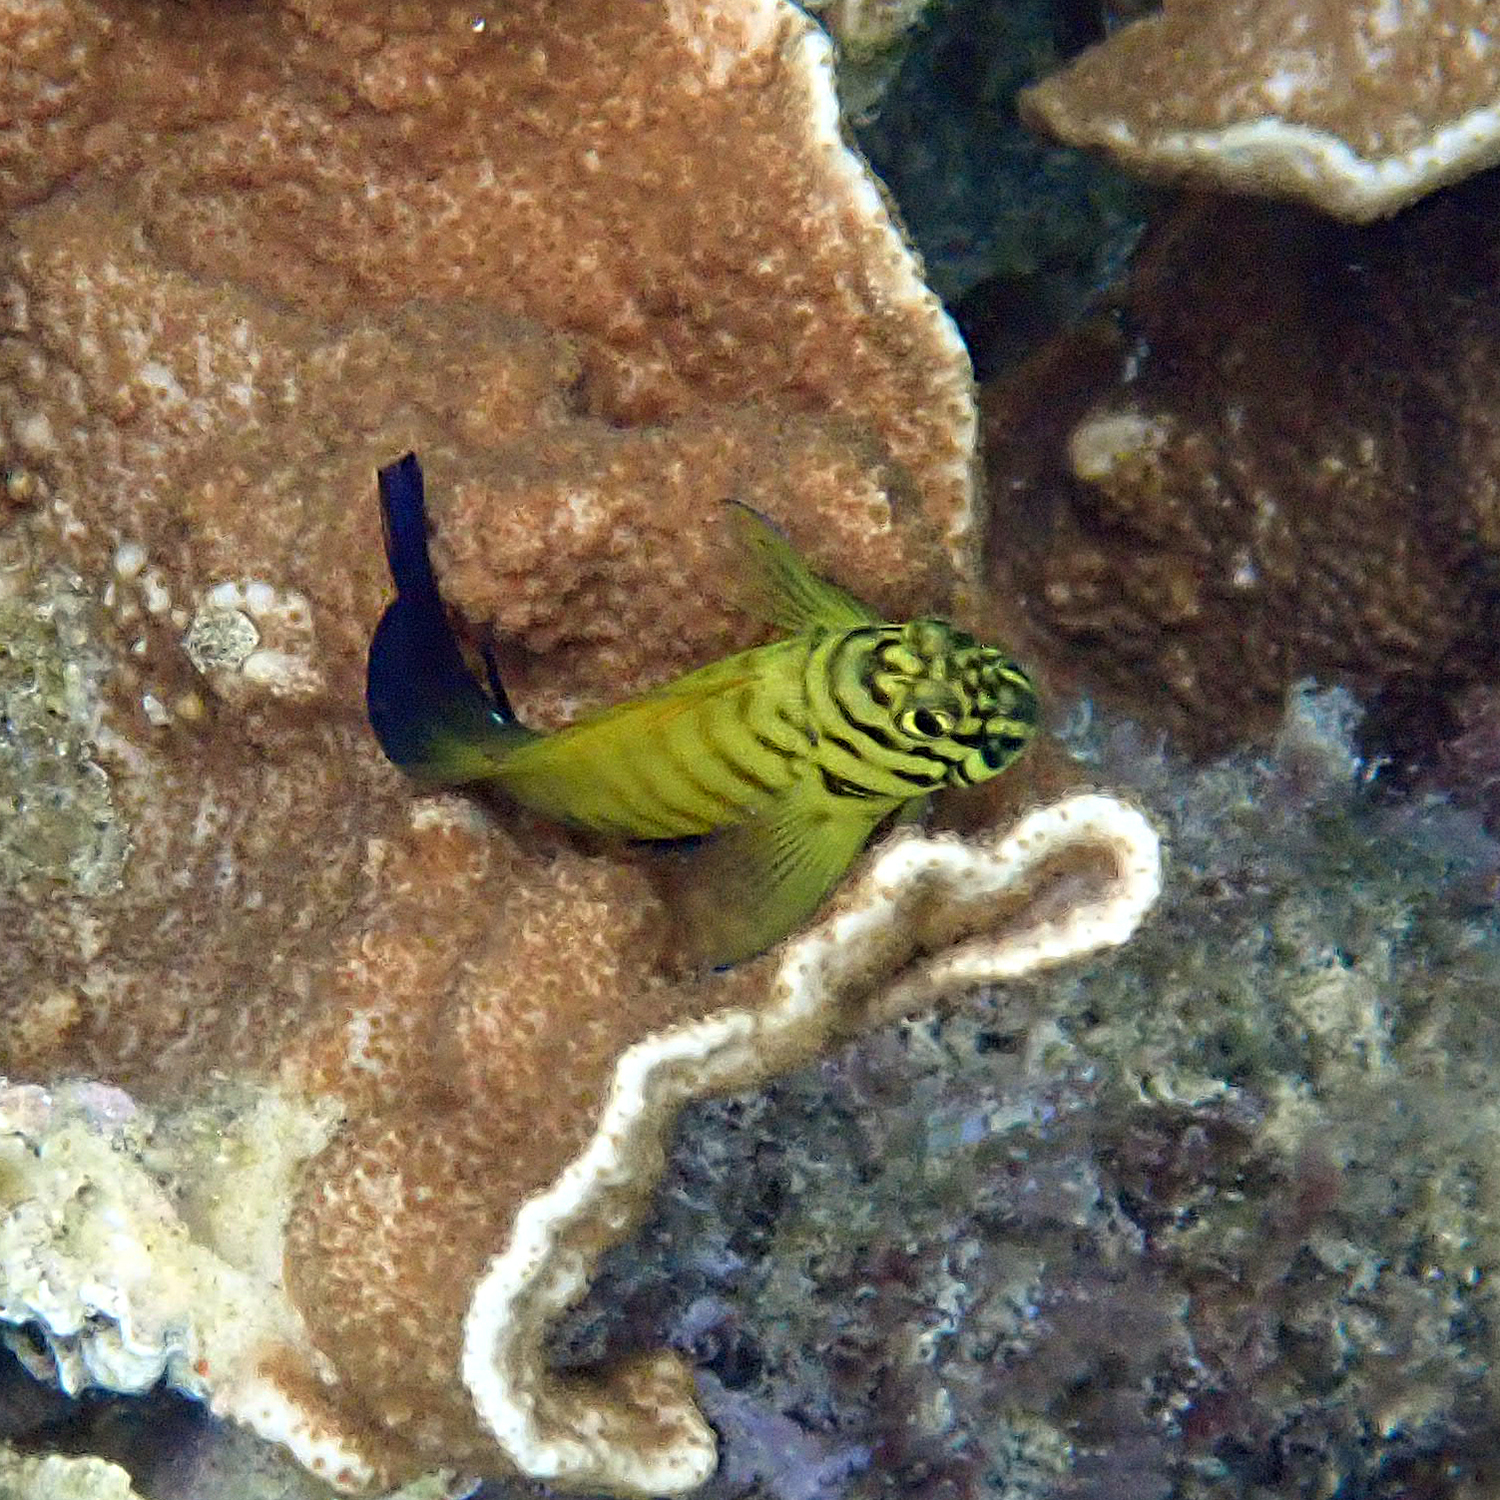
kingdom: Animalia
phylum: Chordata
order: Perciformes
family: Blenniidae
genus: Cirripectes
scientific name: Cirripectes castaneus
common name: Chestnut blenny
